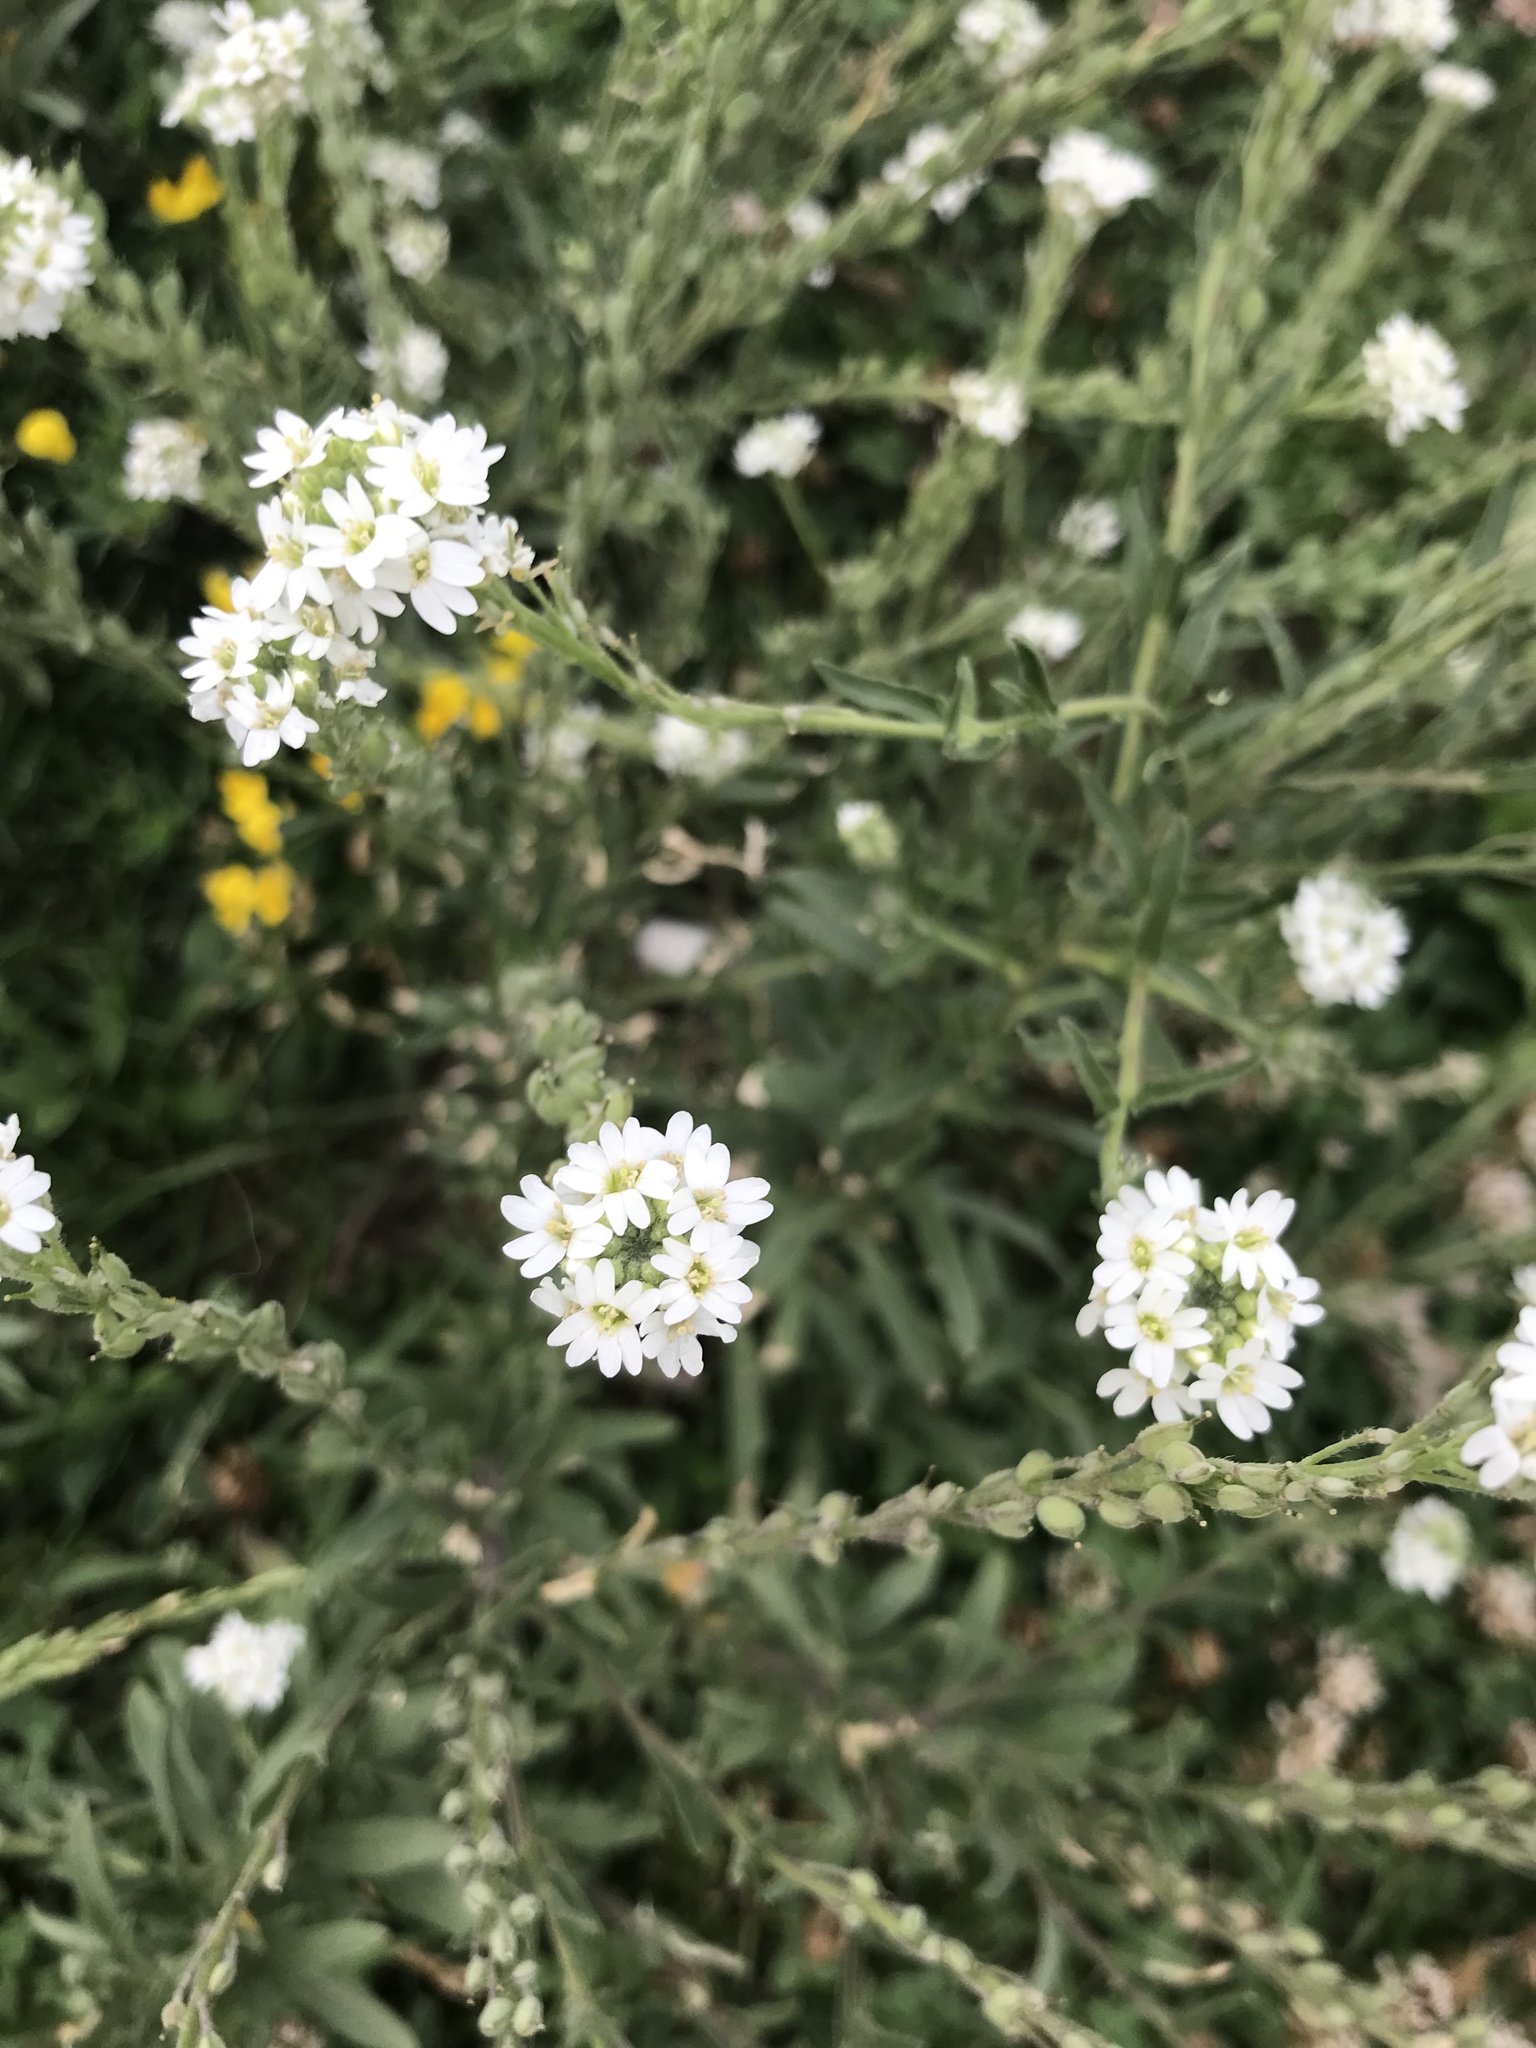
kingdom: Plantae
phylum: Tracheophyta
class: Magnoliopsida
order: Brassicales
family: Brassicaceae
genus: Berteroa
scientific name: Berteroa incana
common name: Hoary alison
